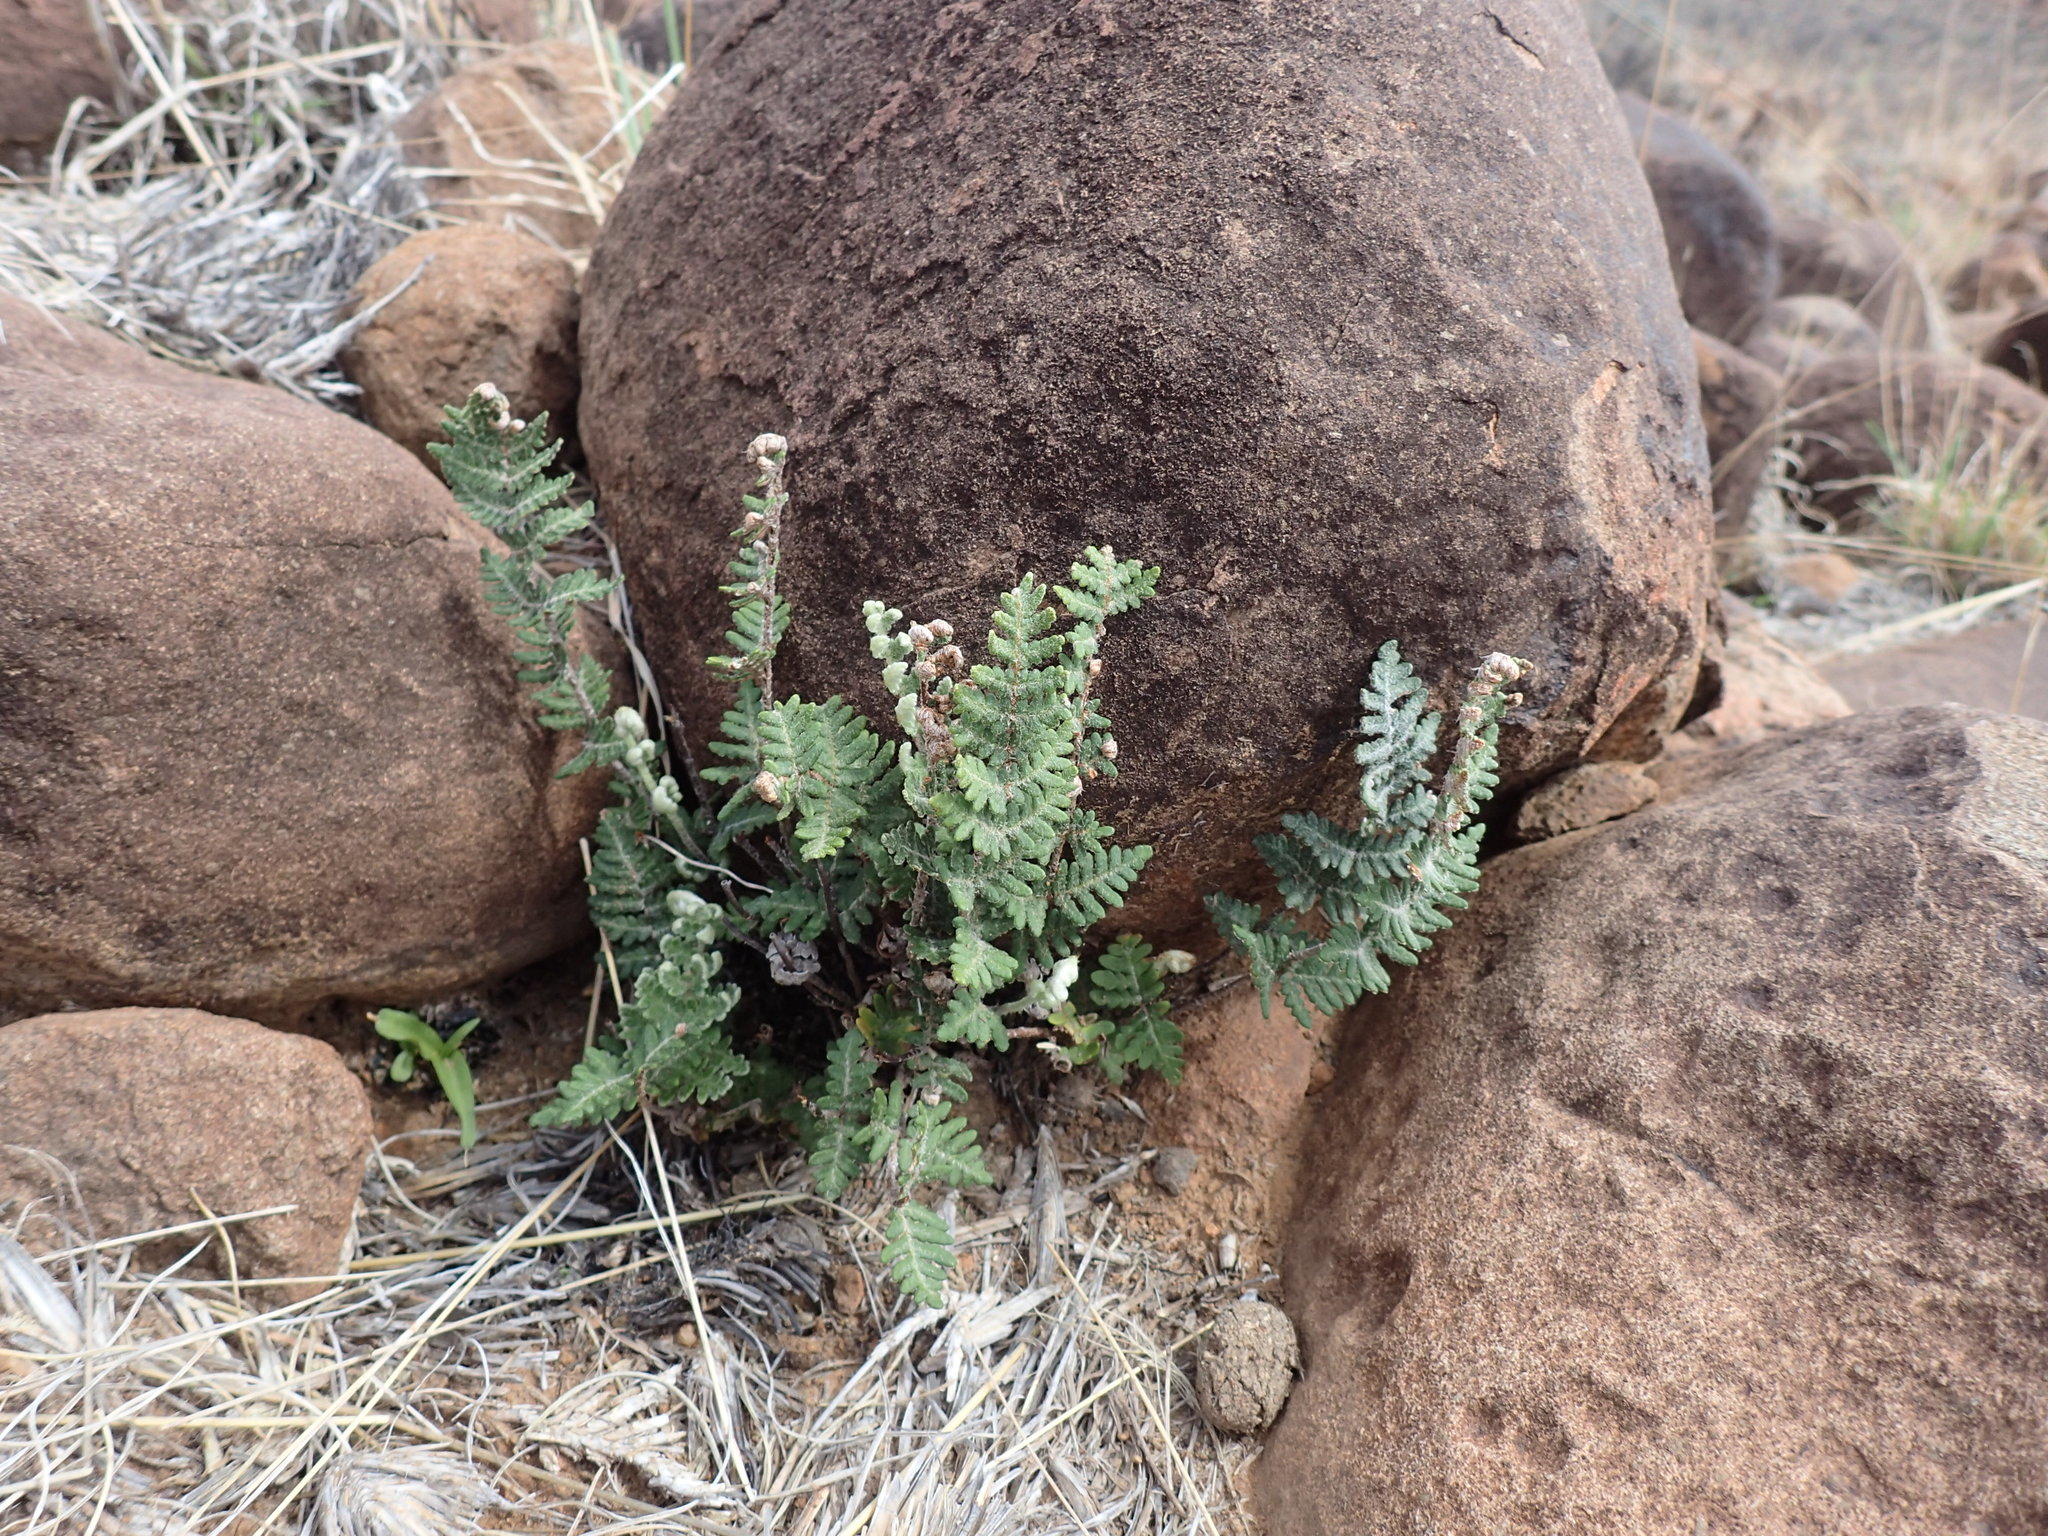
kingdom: Plantae
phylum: Tracheophyta
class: Polypodiopsida
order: Polypodiales
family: Pteridaceae
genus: Cheilanthes
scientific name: Cheilanthes eckloniana
